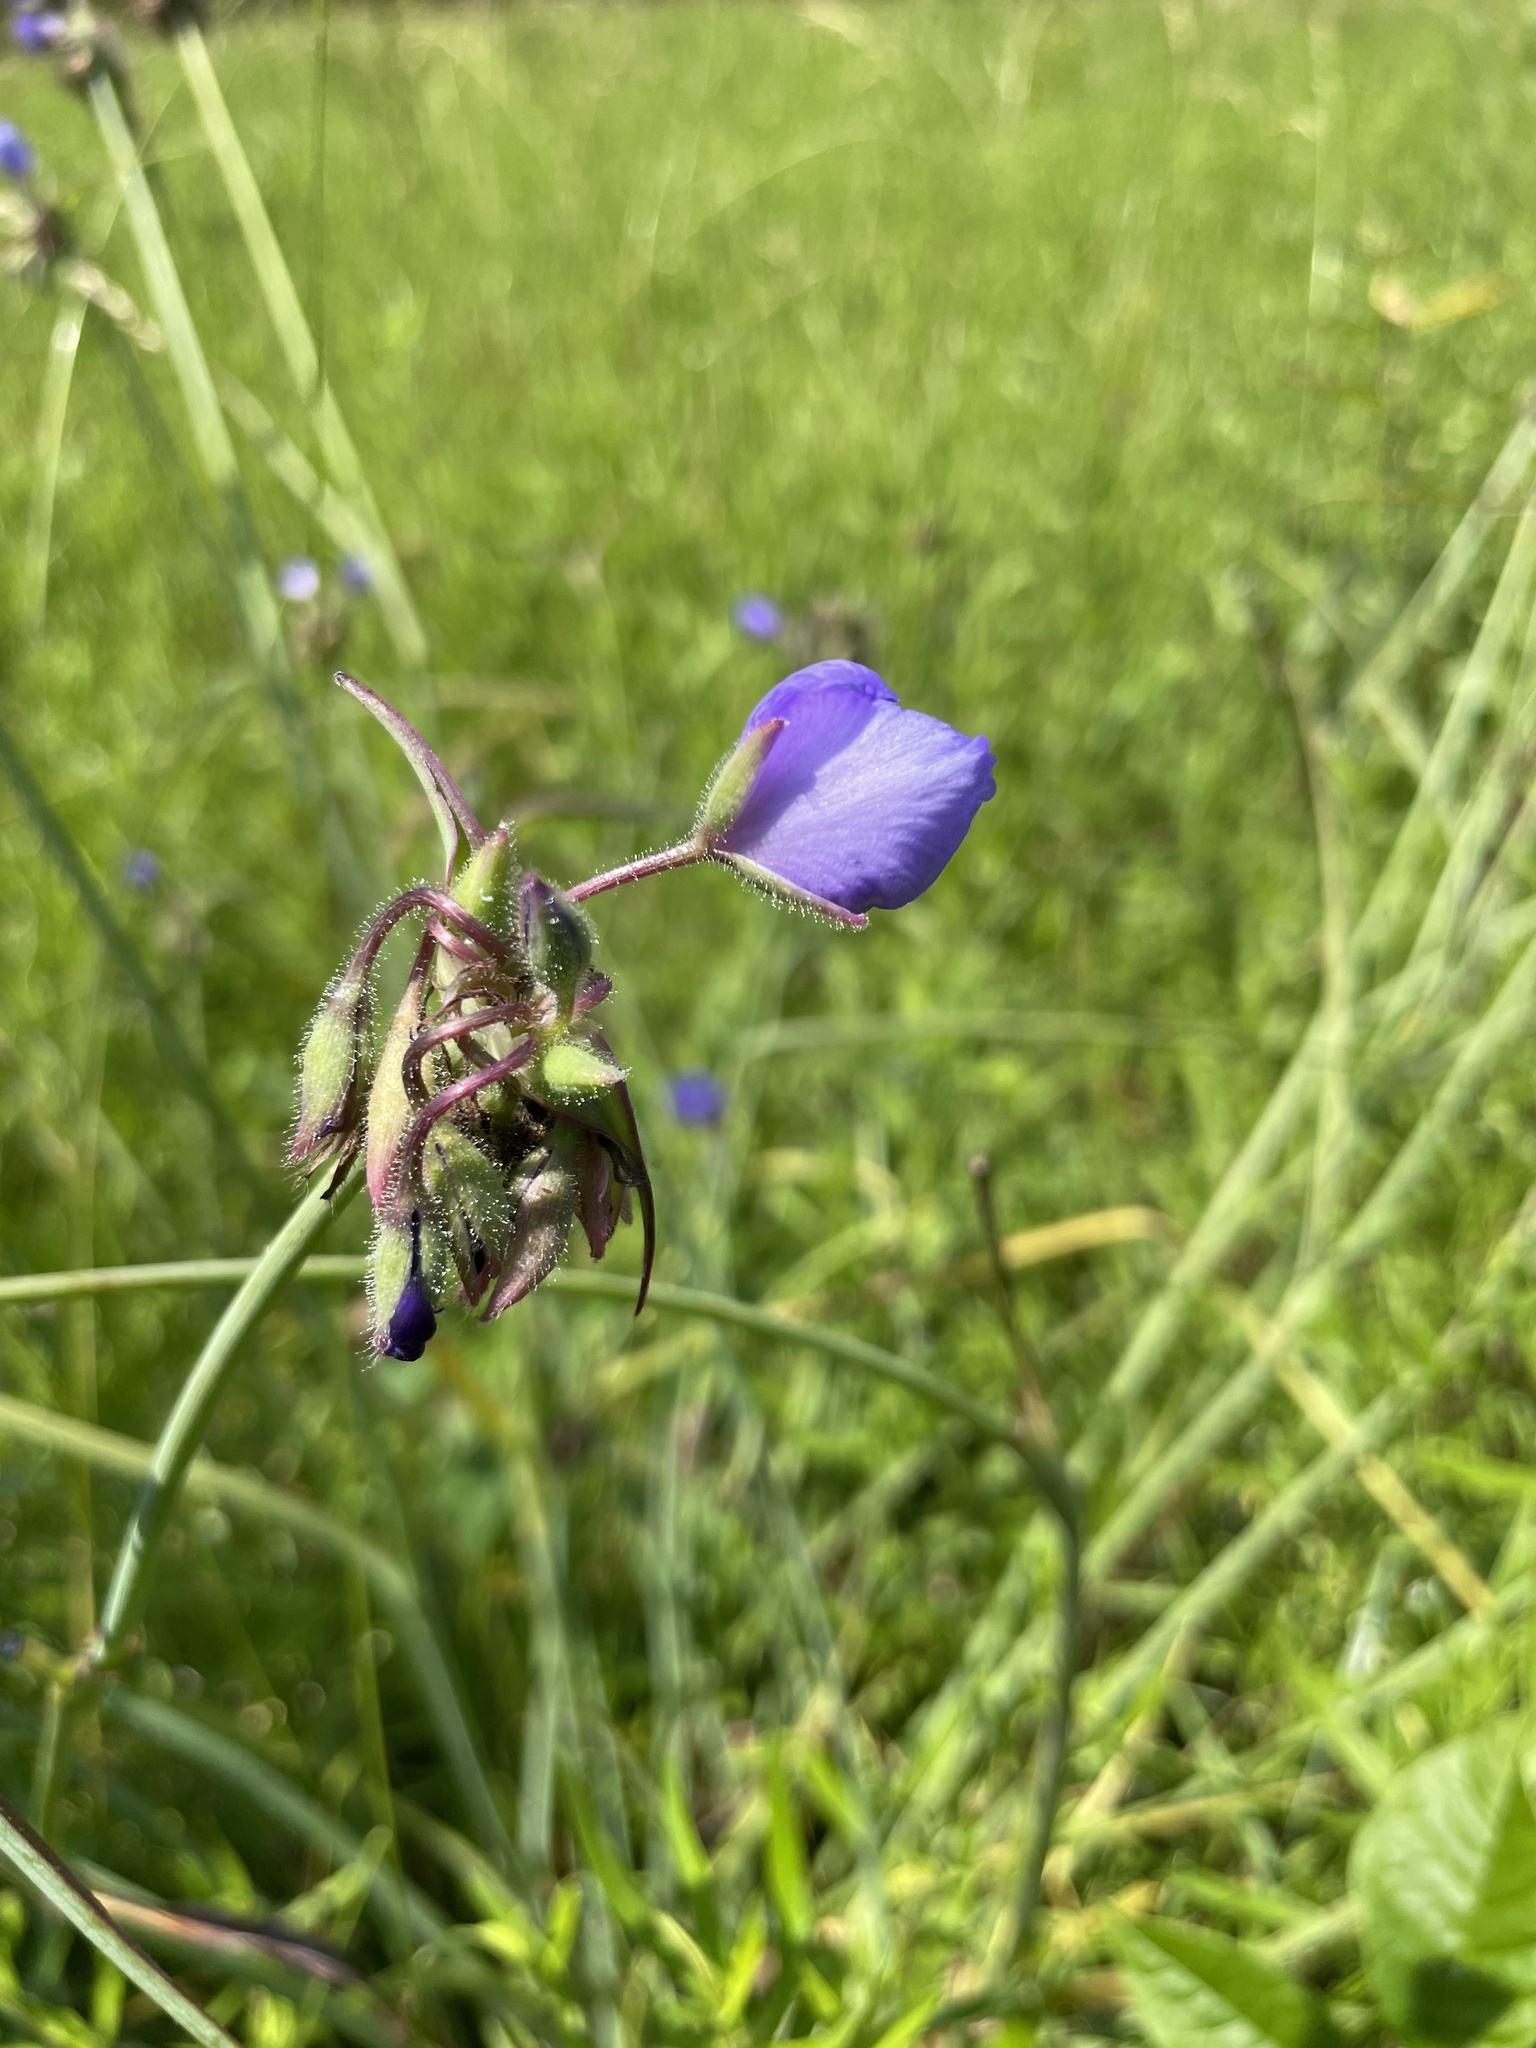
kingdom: Plantae
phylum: Tracheophyta
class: Liliopsida
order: Commelinales
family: Commelinaceae
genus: Tradescantia
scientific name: Tradescantia occidentalis
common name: Prairie spiderwort
